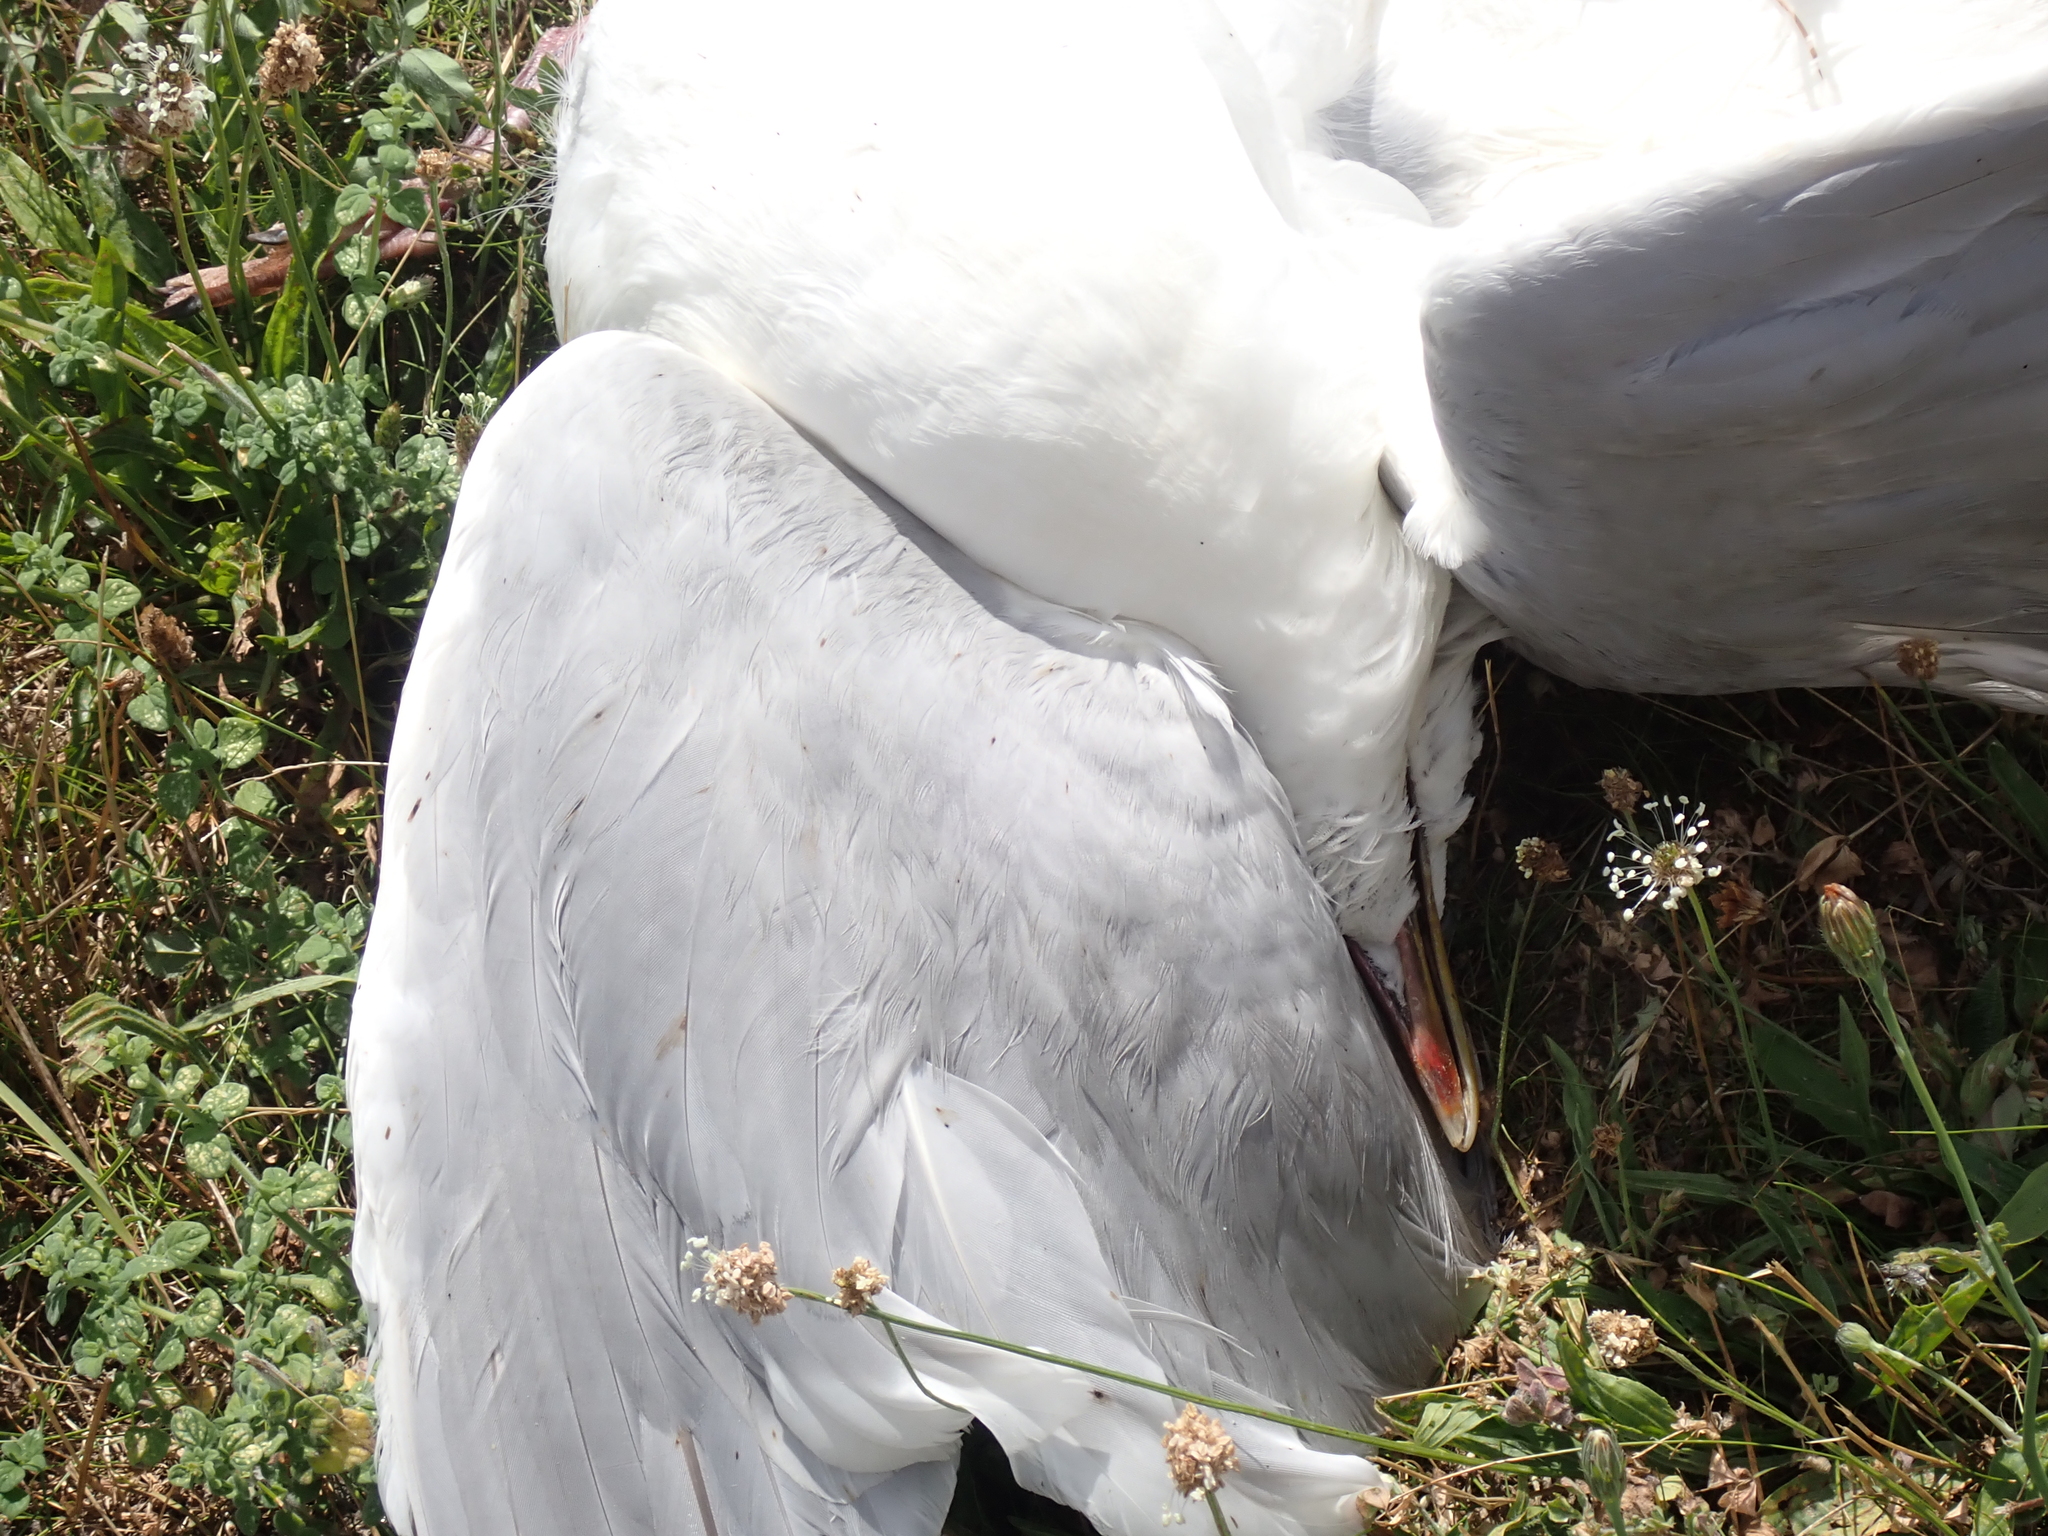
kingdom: Animalia
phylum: Chordata
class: Aves
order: Charadriiformes
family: Laridae
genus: Larus
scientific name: Larus argentatus
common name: Herring gull
